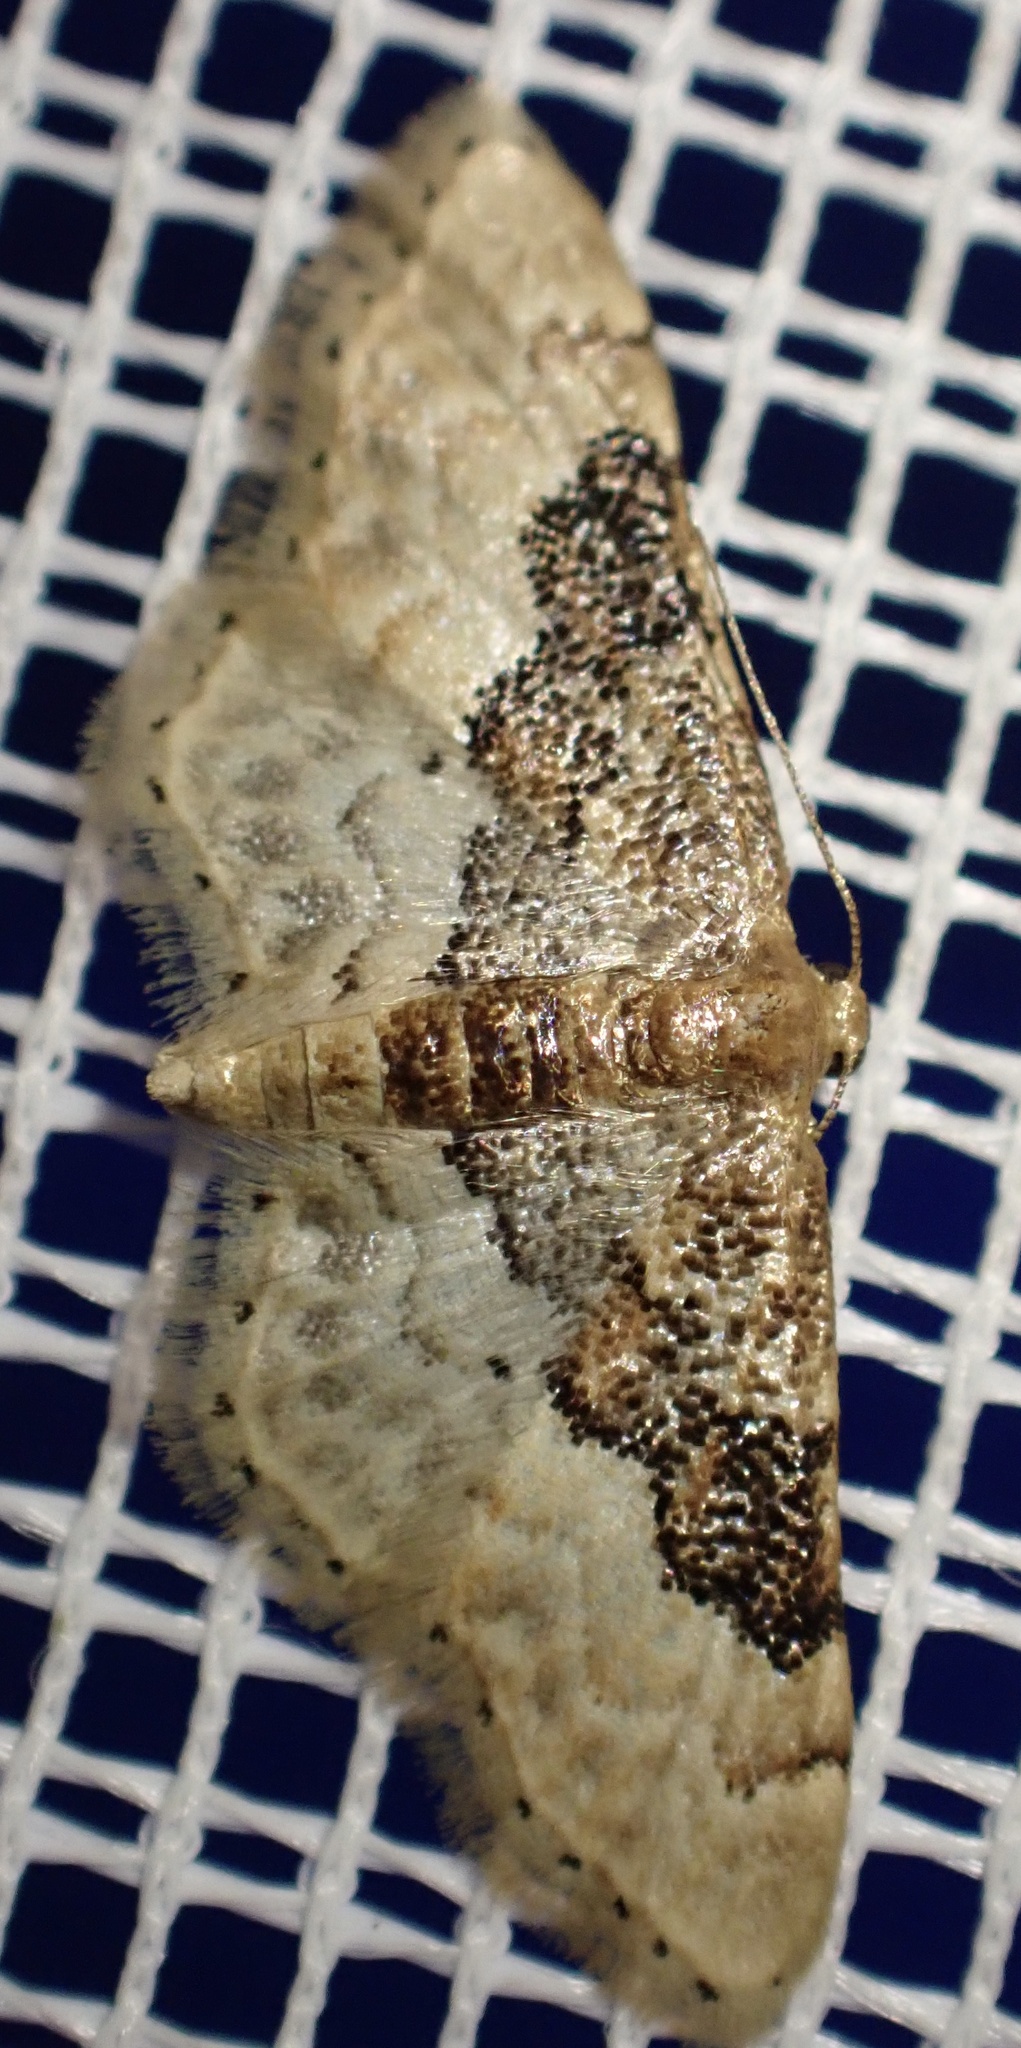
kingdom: Animalia
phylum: Arthropoda
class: Insecta
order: Lepidoptera
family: Geometridae
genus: Idaea
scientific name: Idaea completa
